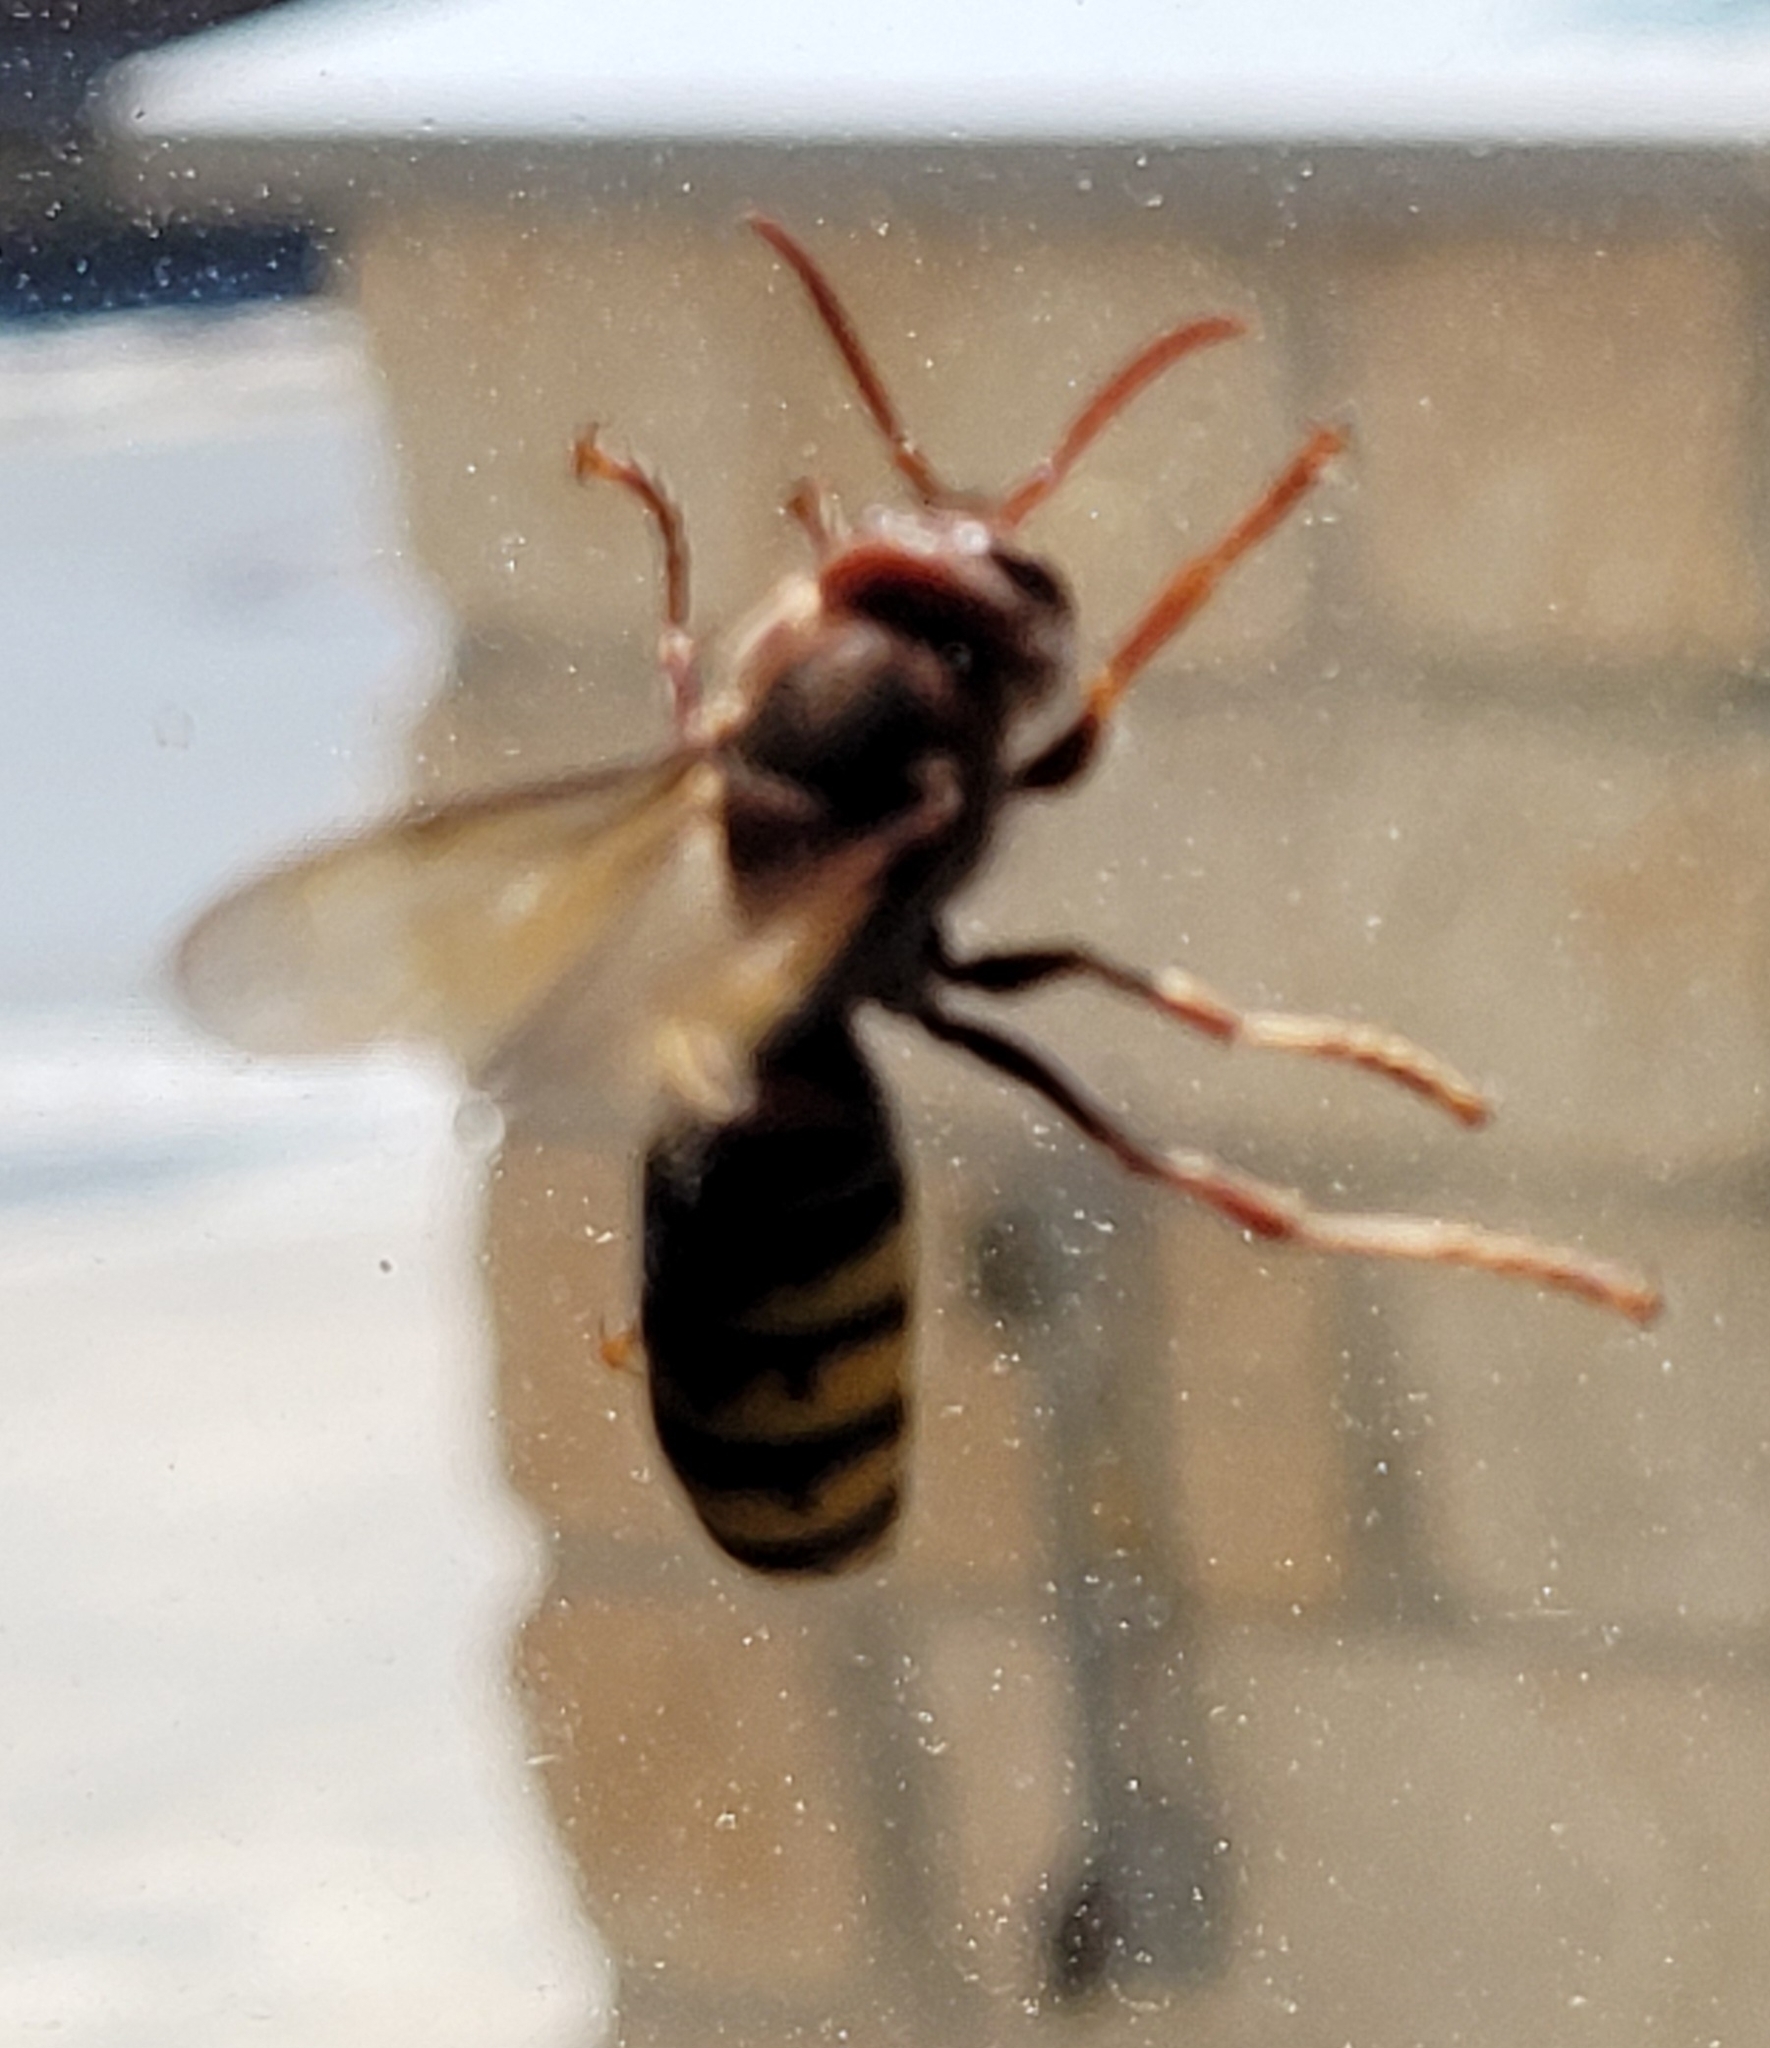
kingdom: Animalia
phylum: Arthropoda
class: Insecta
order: Hymenoptera
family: Vespidae
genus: Vespa
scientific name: Vespa crabro
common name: Hornet
